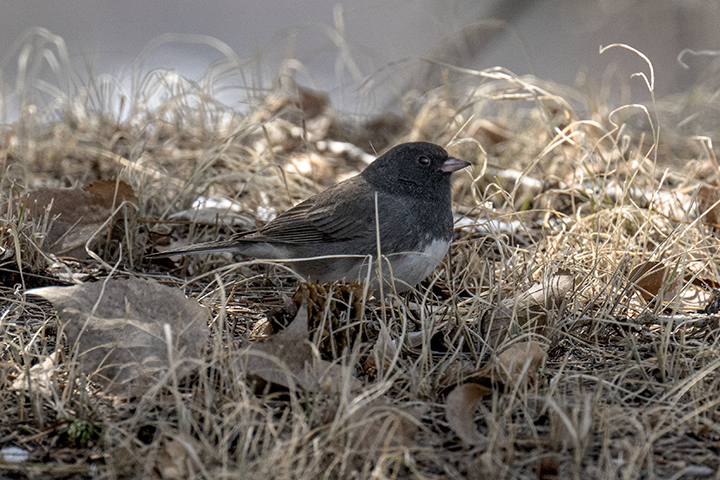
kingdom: Animalia
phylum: Chordata
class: Aves
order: Passeriformes
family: Passerellidae
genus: Junco
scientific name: Junco hyemalis
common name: Dark-eyed junco
